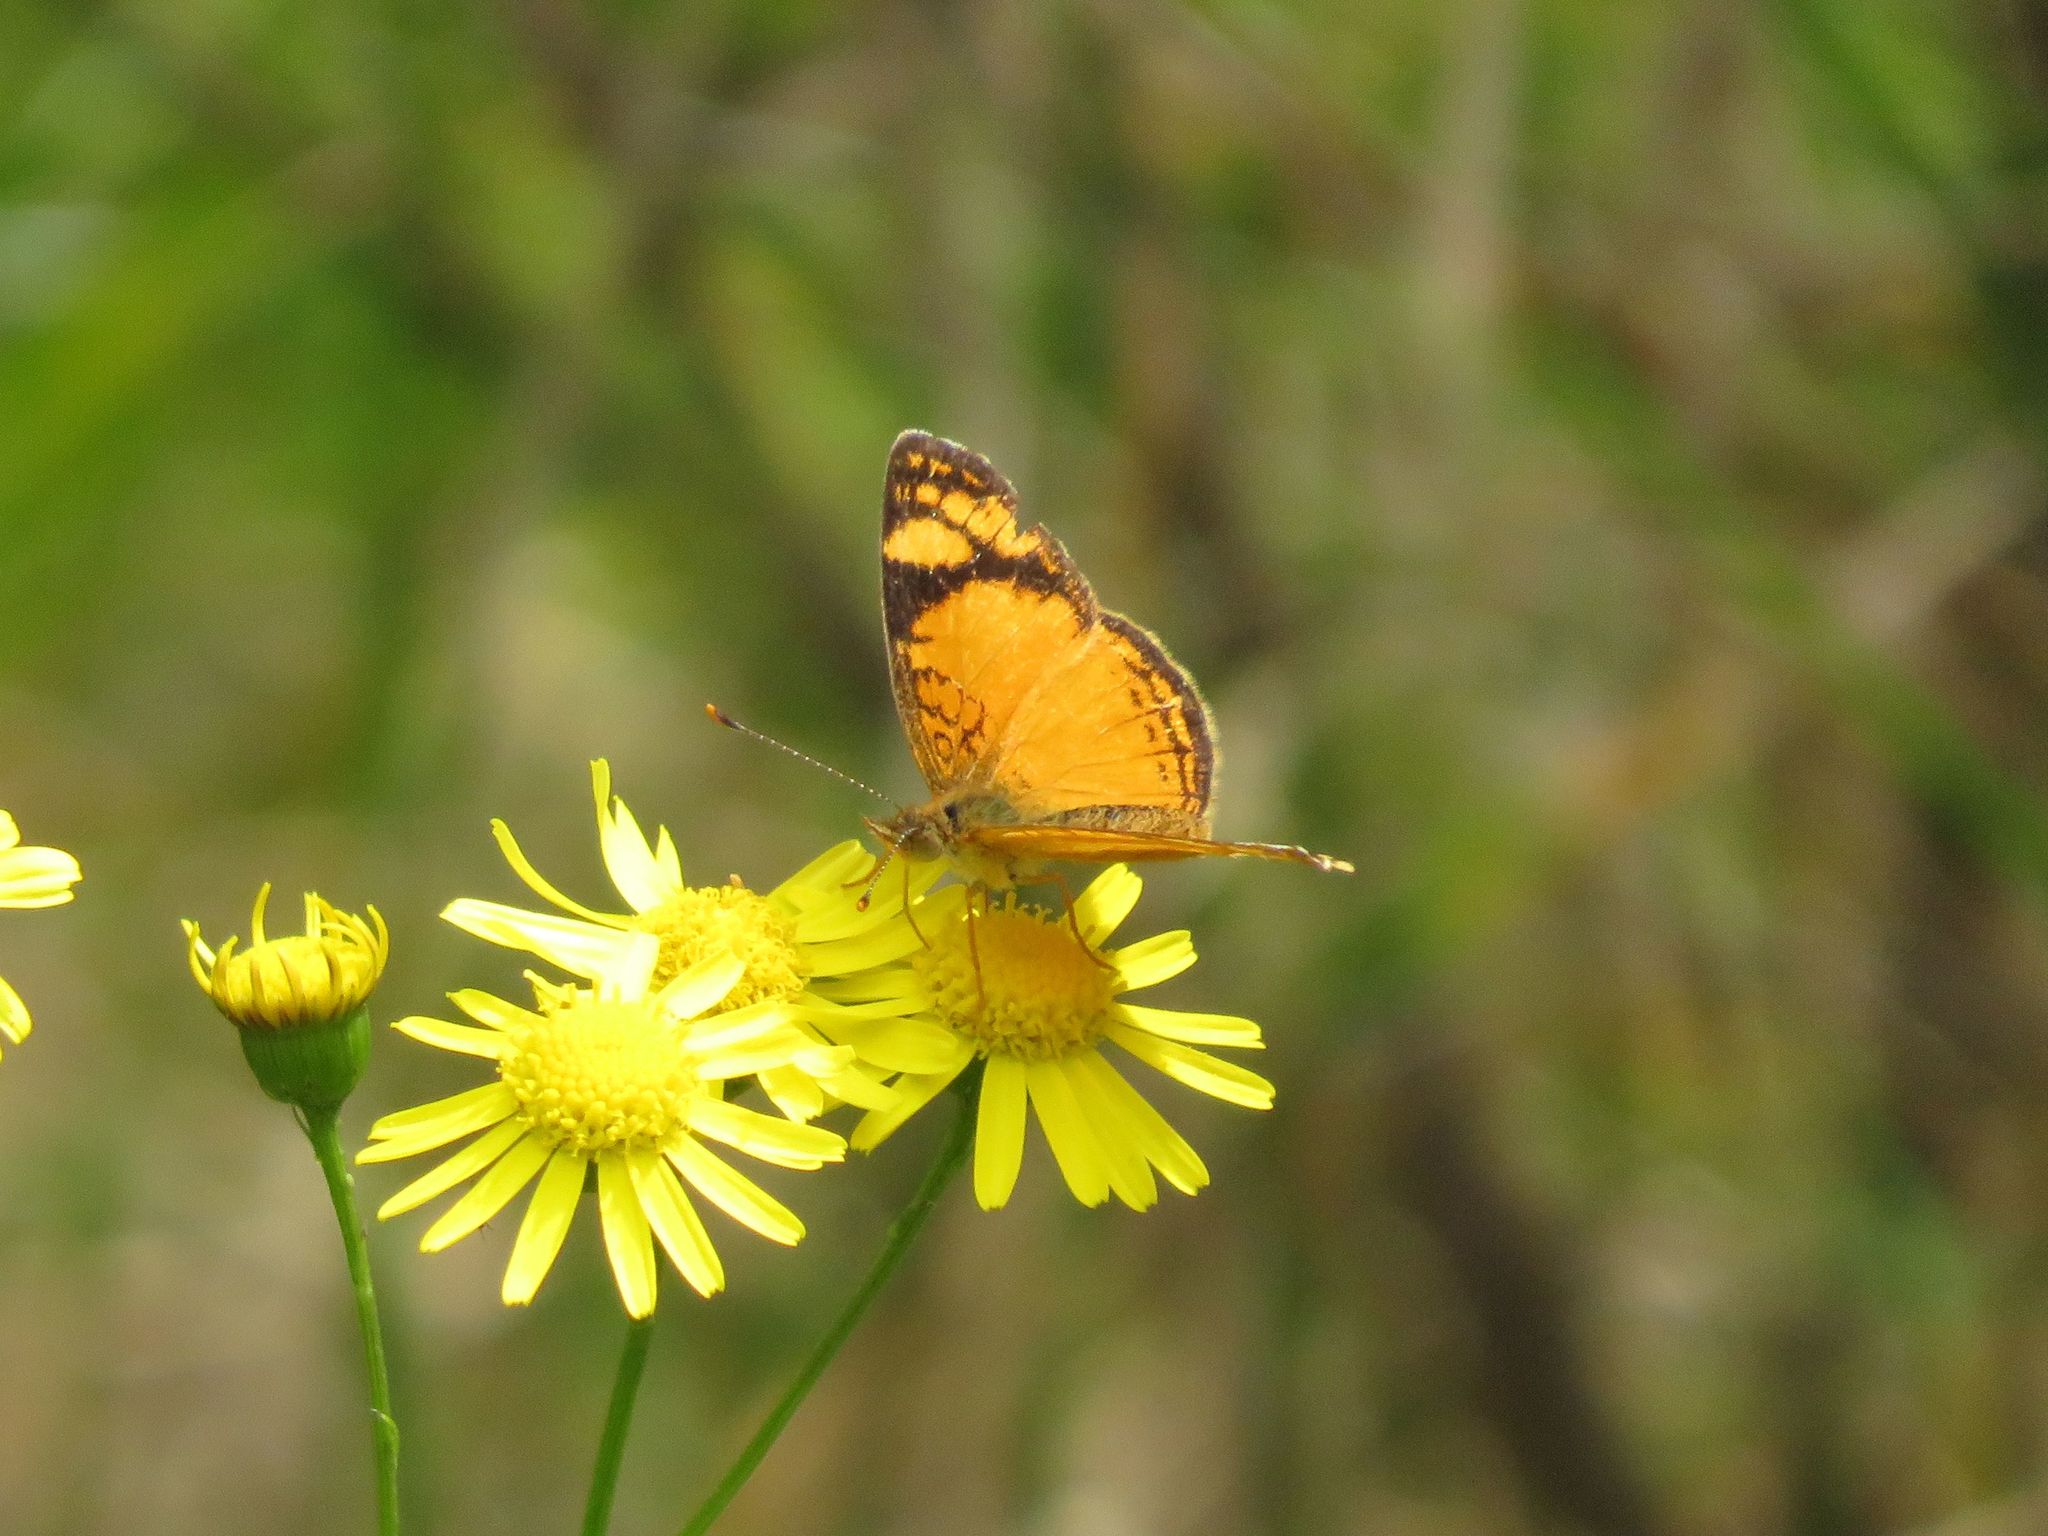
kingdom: Animalia
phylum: Arthropoda
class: Insecta
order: Lepidoptera
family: Nymphalidae
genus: Tegosa
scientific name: Tegosa orobia
